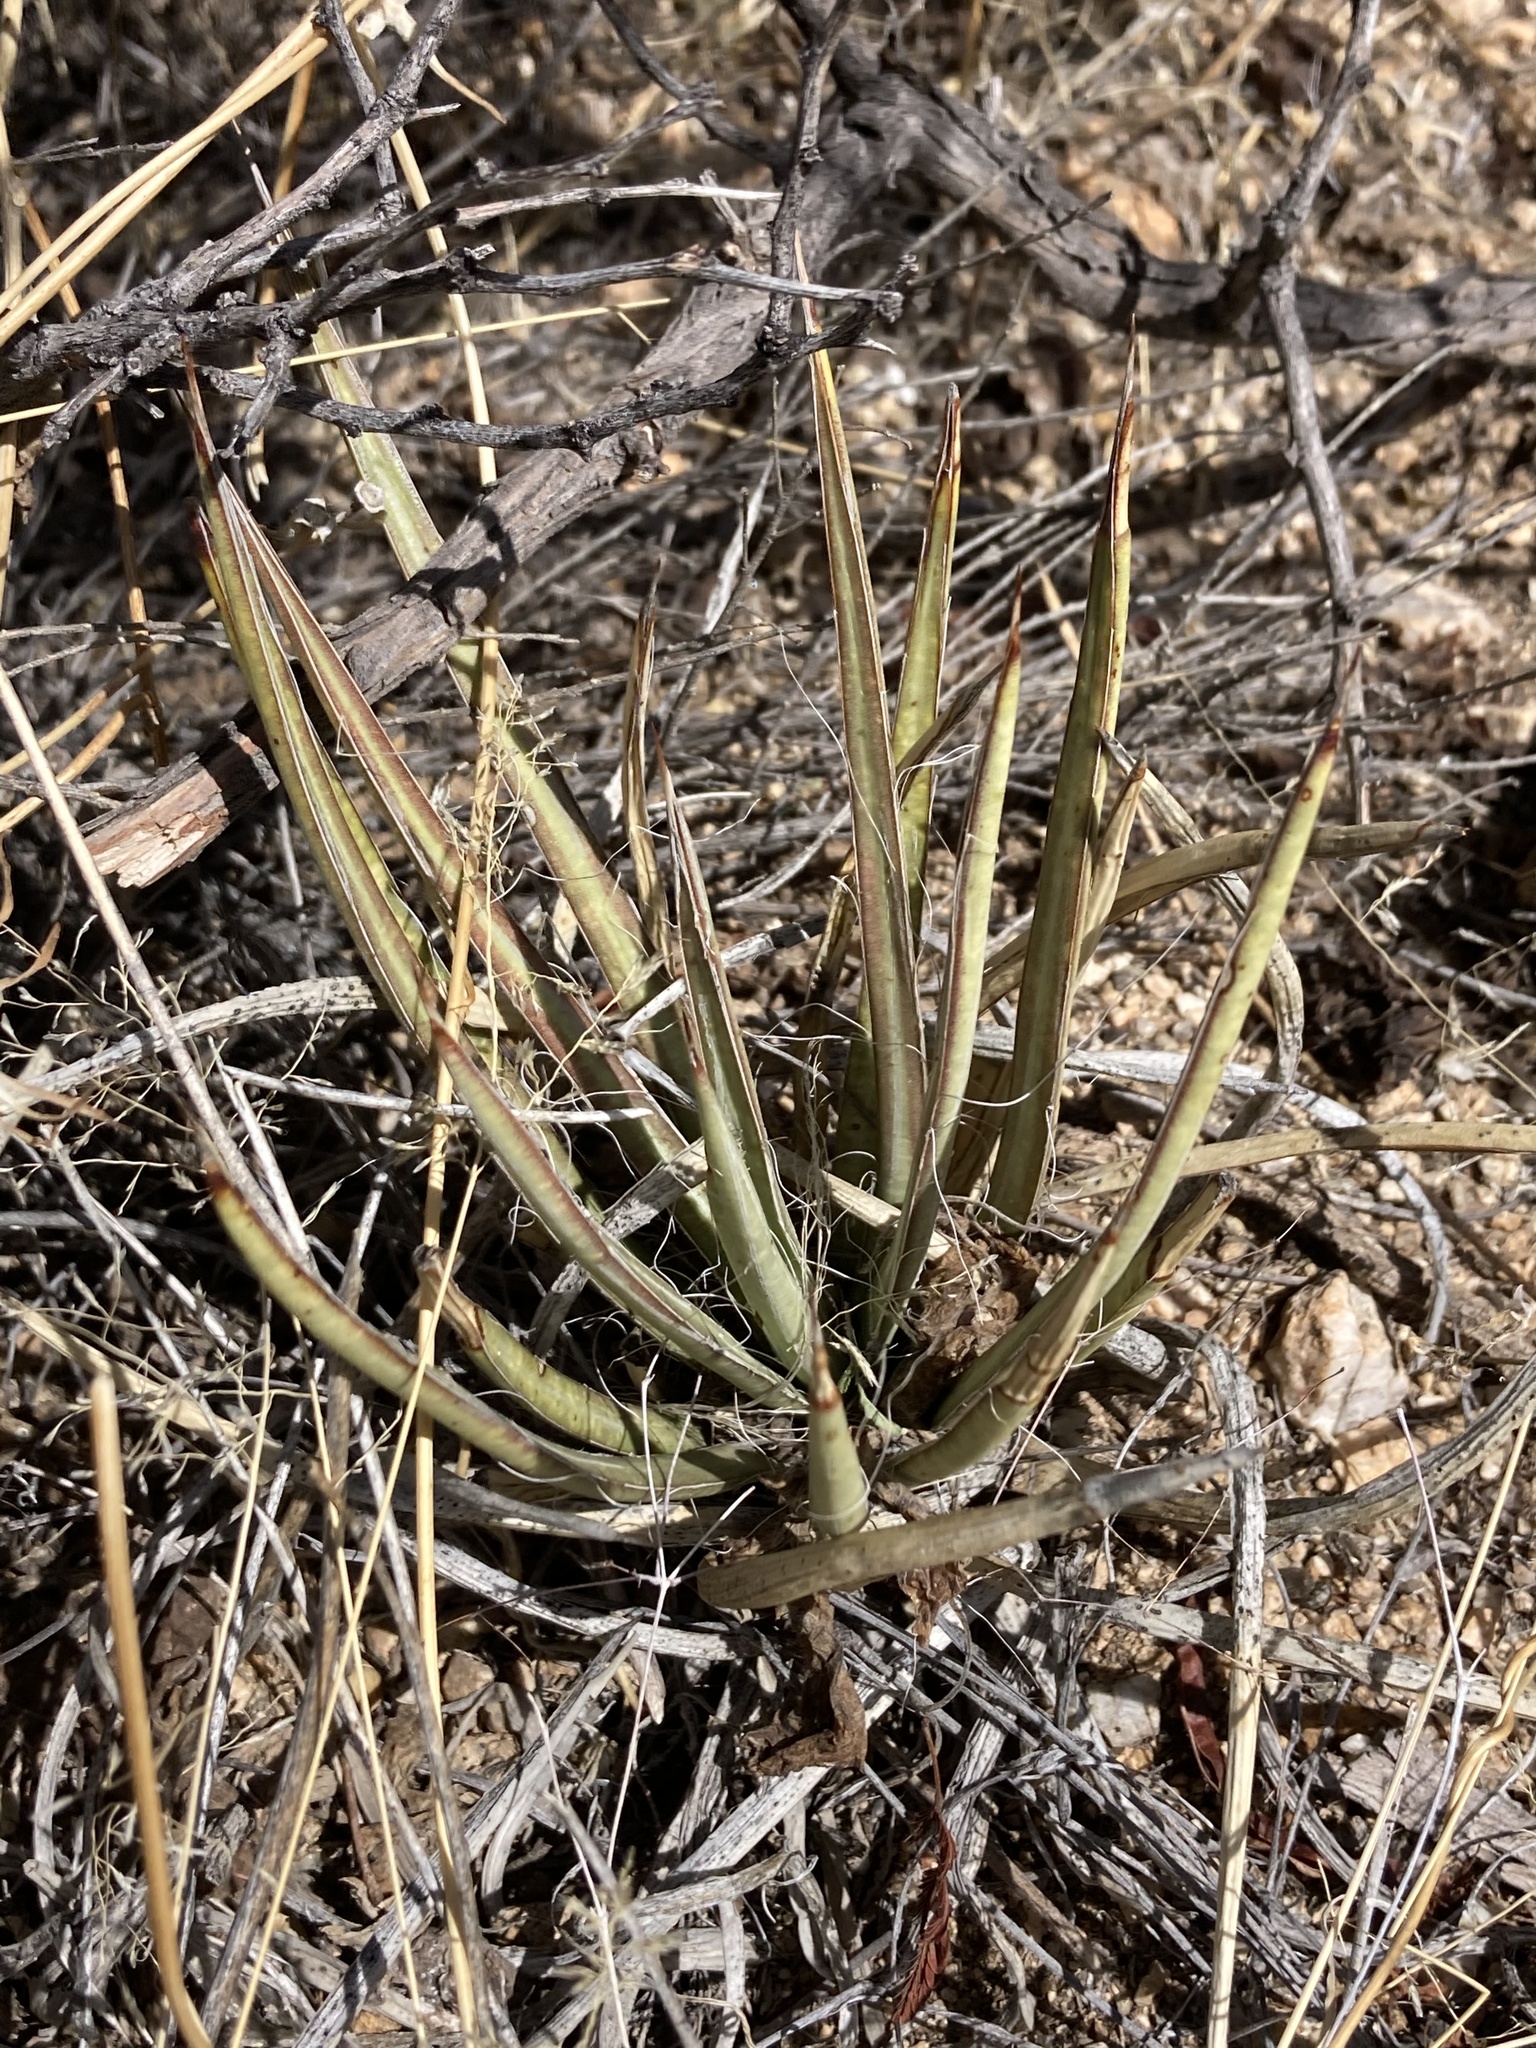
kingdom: Plantae
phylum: Tracheophyta
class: Liliopsida
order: Asparagales
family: Asparagaceae
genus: Agave
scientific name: Agave schottii
